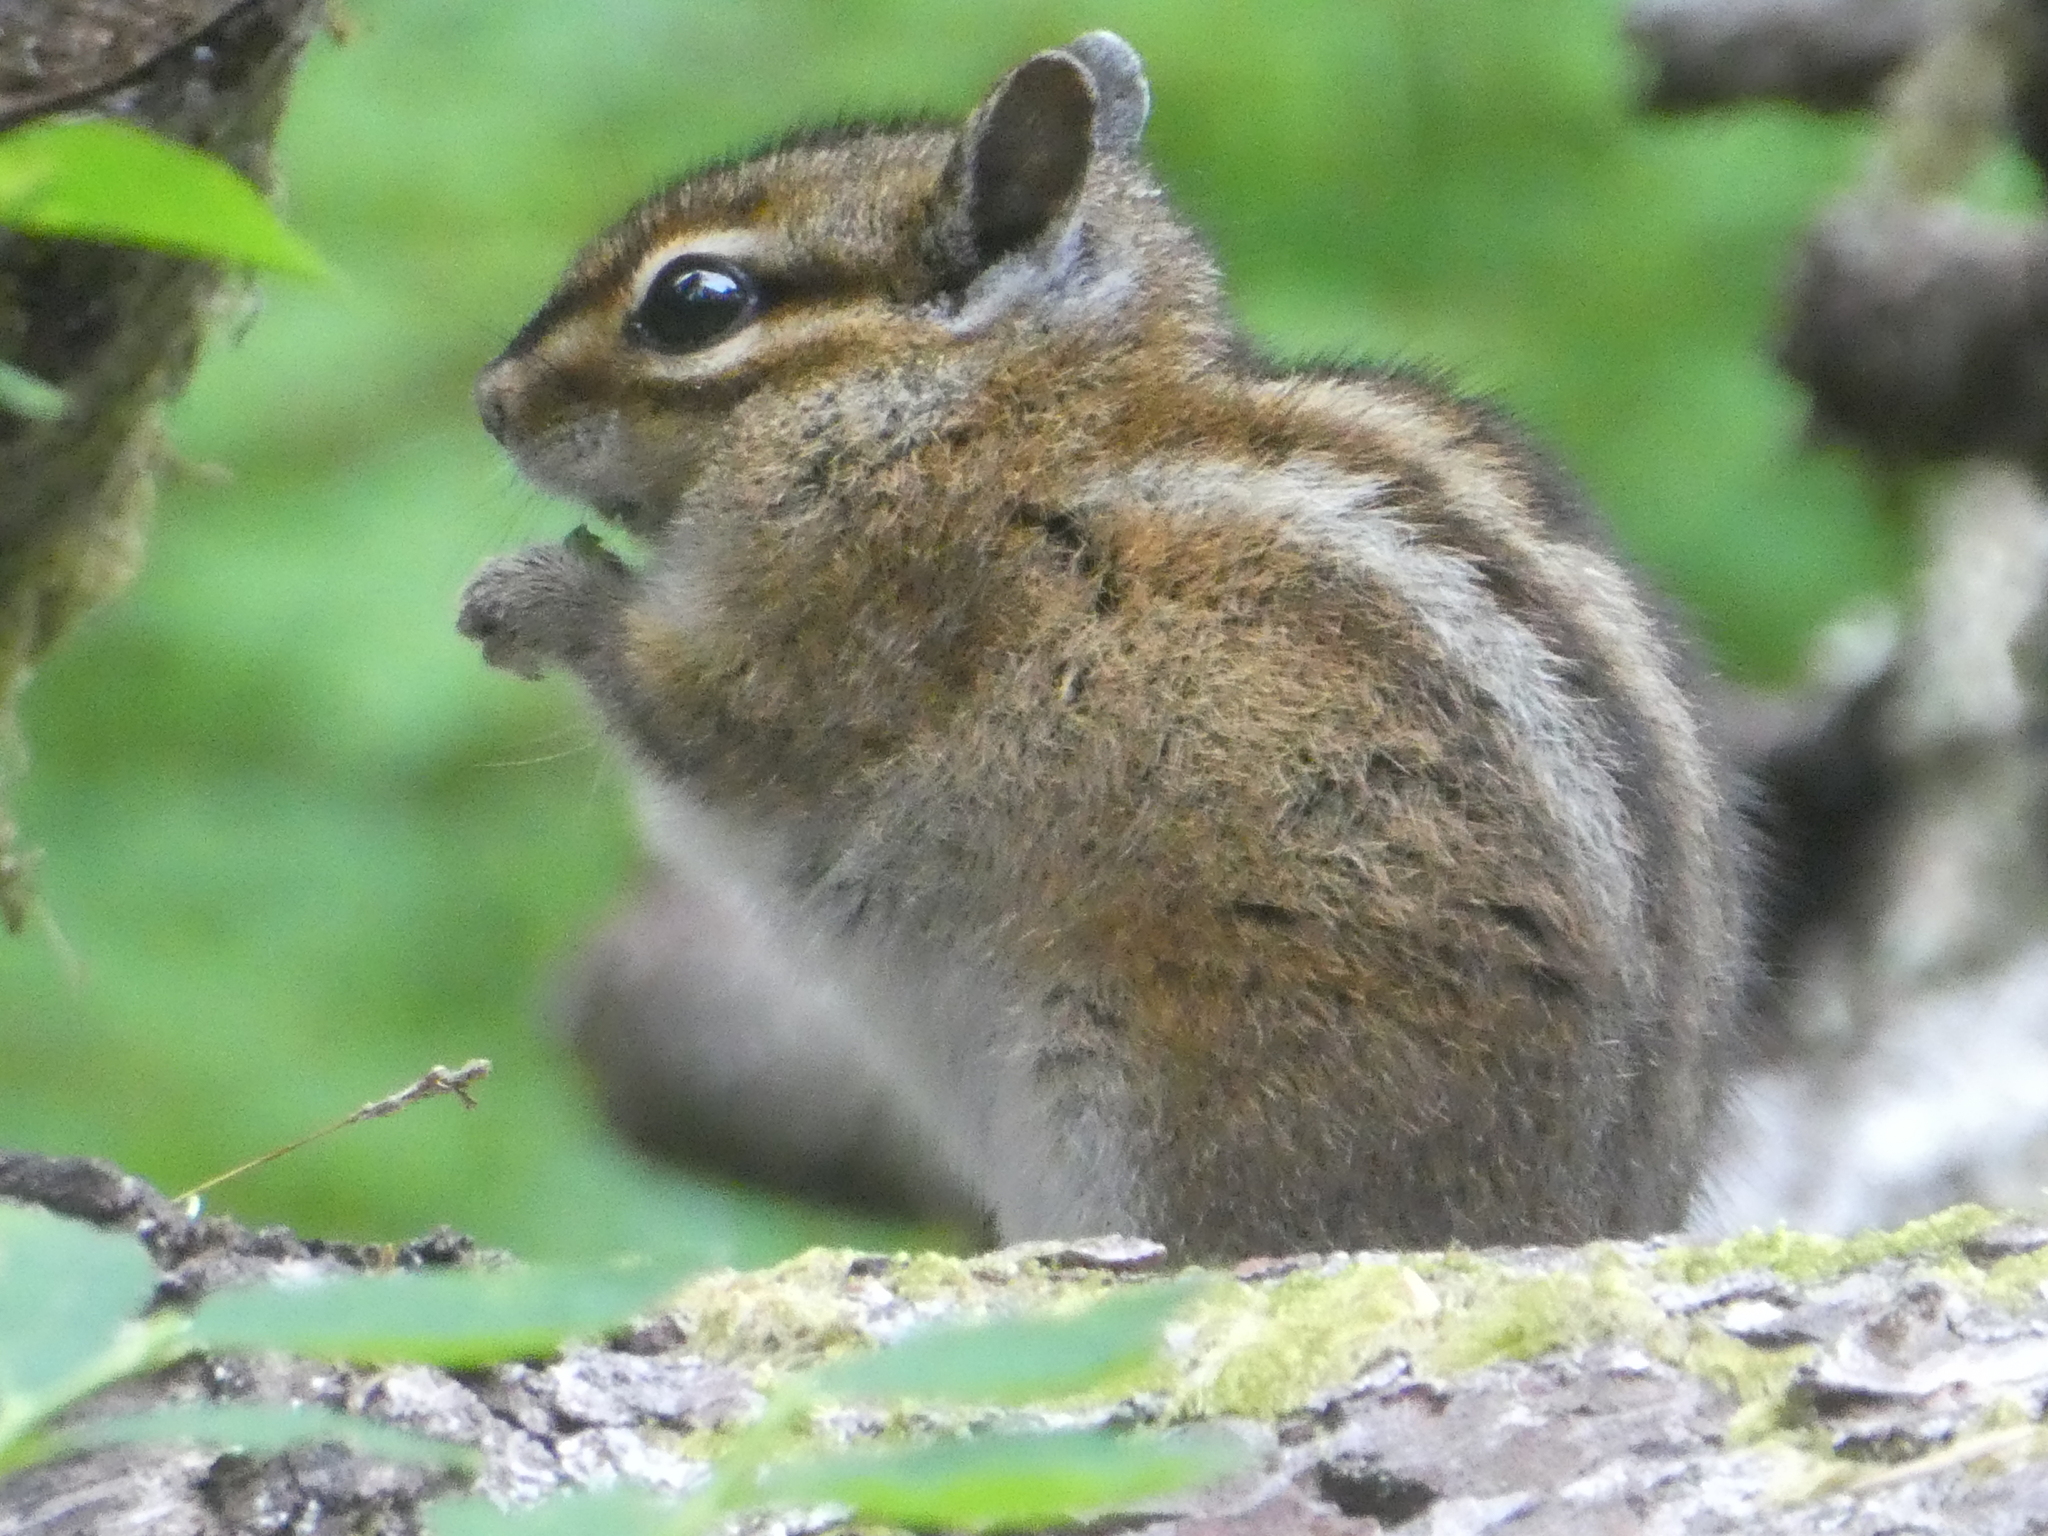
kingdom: Animalia
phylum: Chordata
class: Mammalia
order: Rodentia
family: Sciuridae
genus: Tamias
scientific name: Tamias townsendii
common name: Townsend's chipmunk
